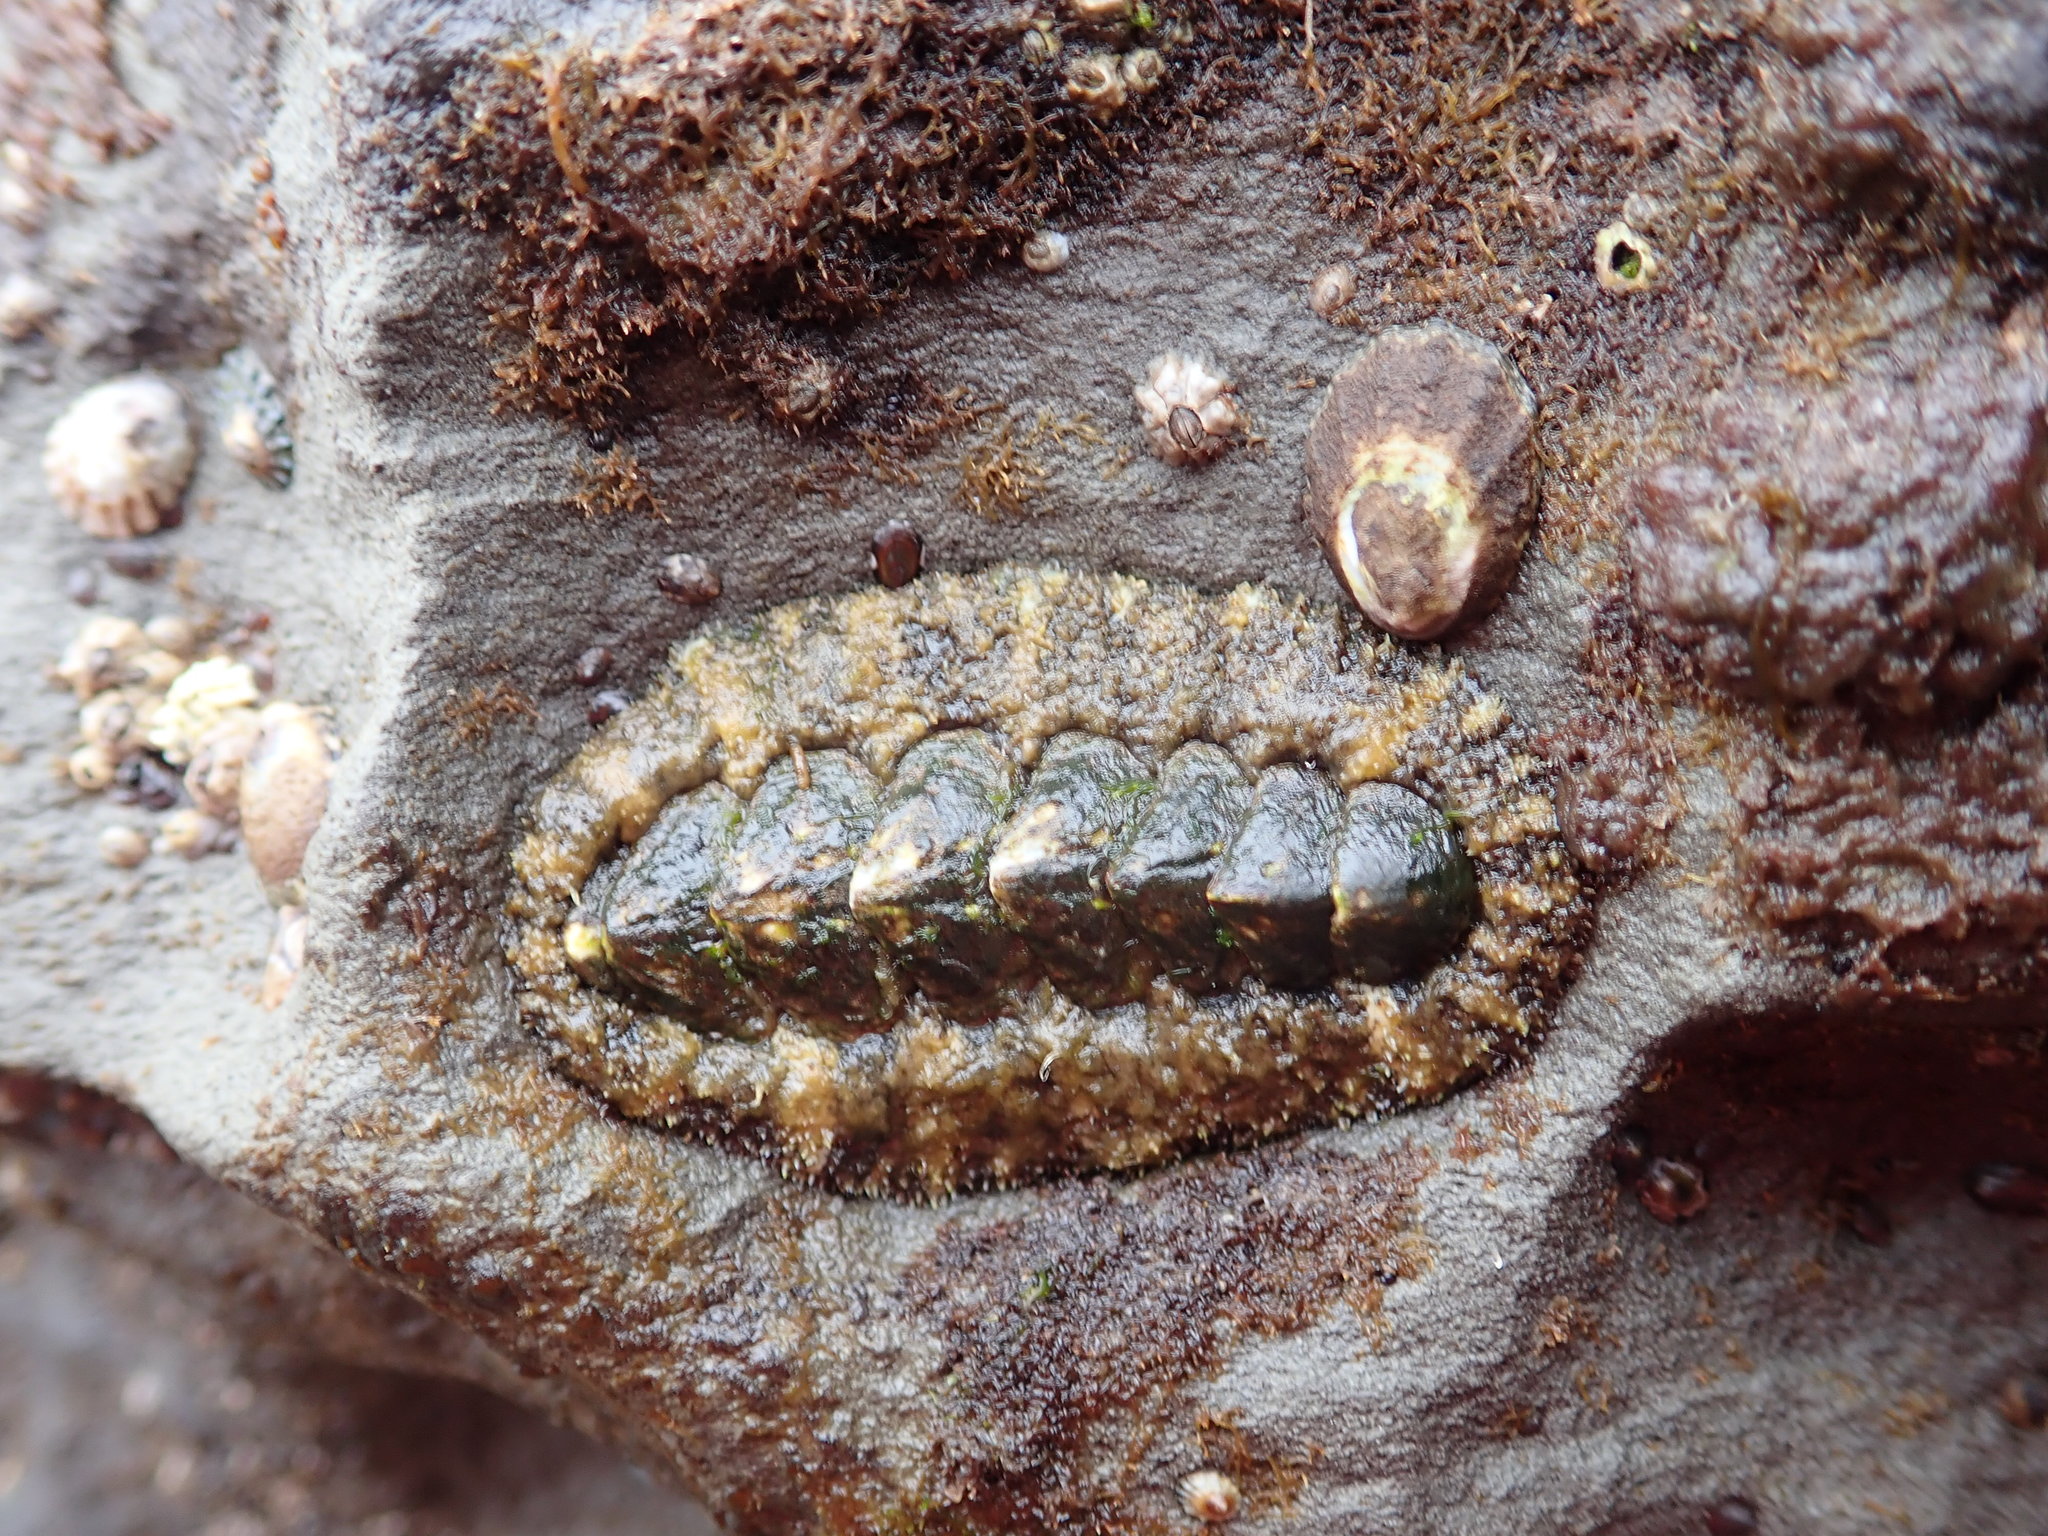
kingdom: Animalia
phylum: Mollusca
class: Polyplacophora
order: Chitonida
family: Tonicellidae
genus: Nuttallina
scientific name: Nuttallina californica
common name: California nuttall chiton
